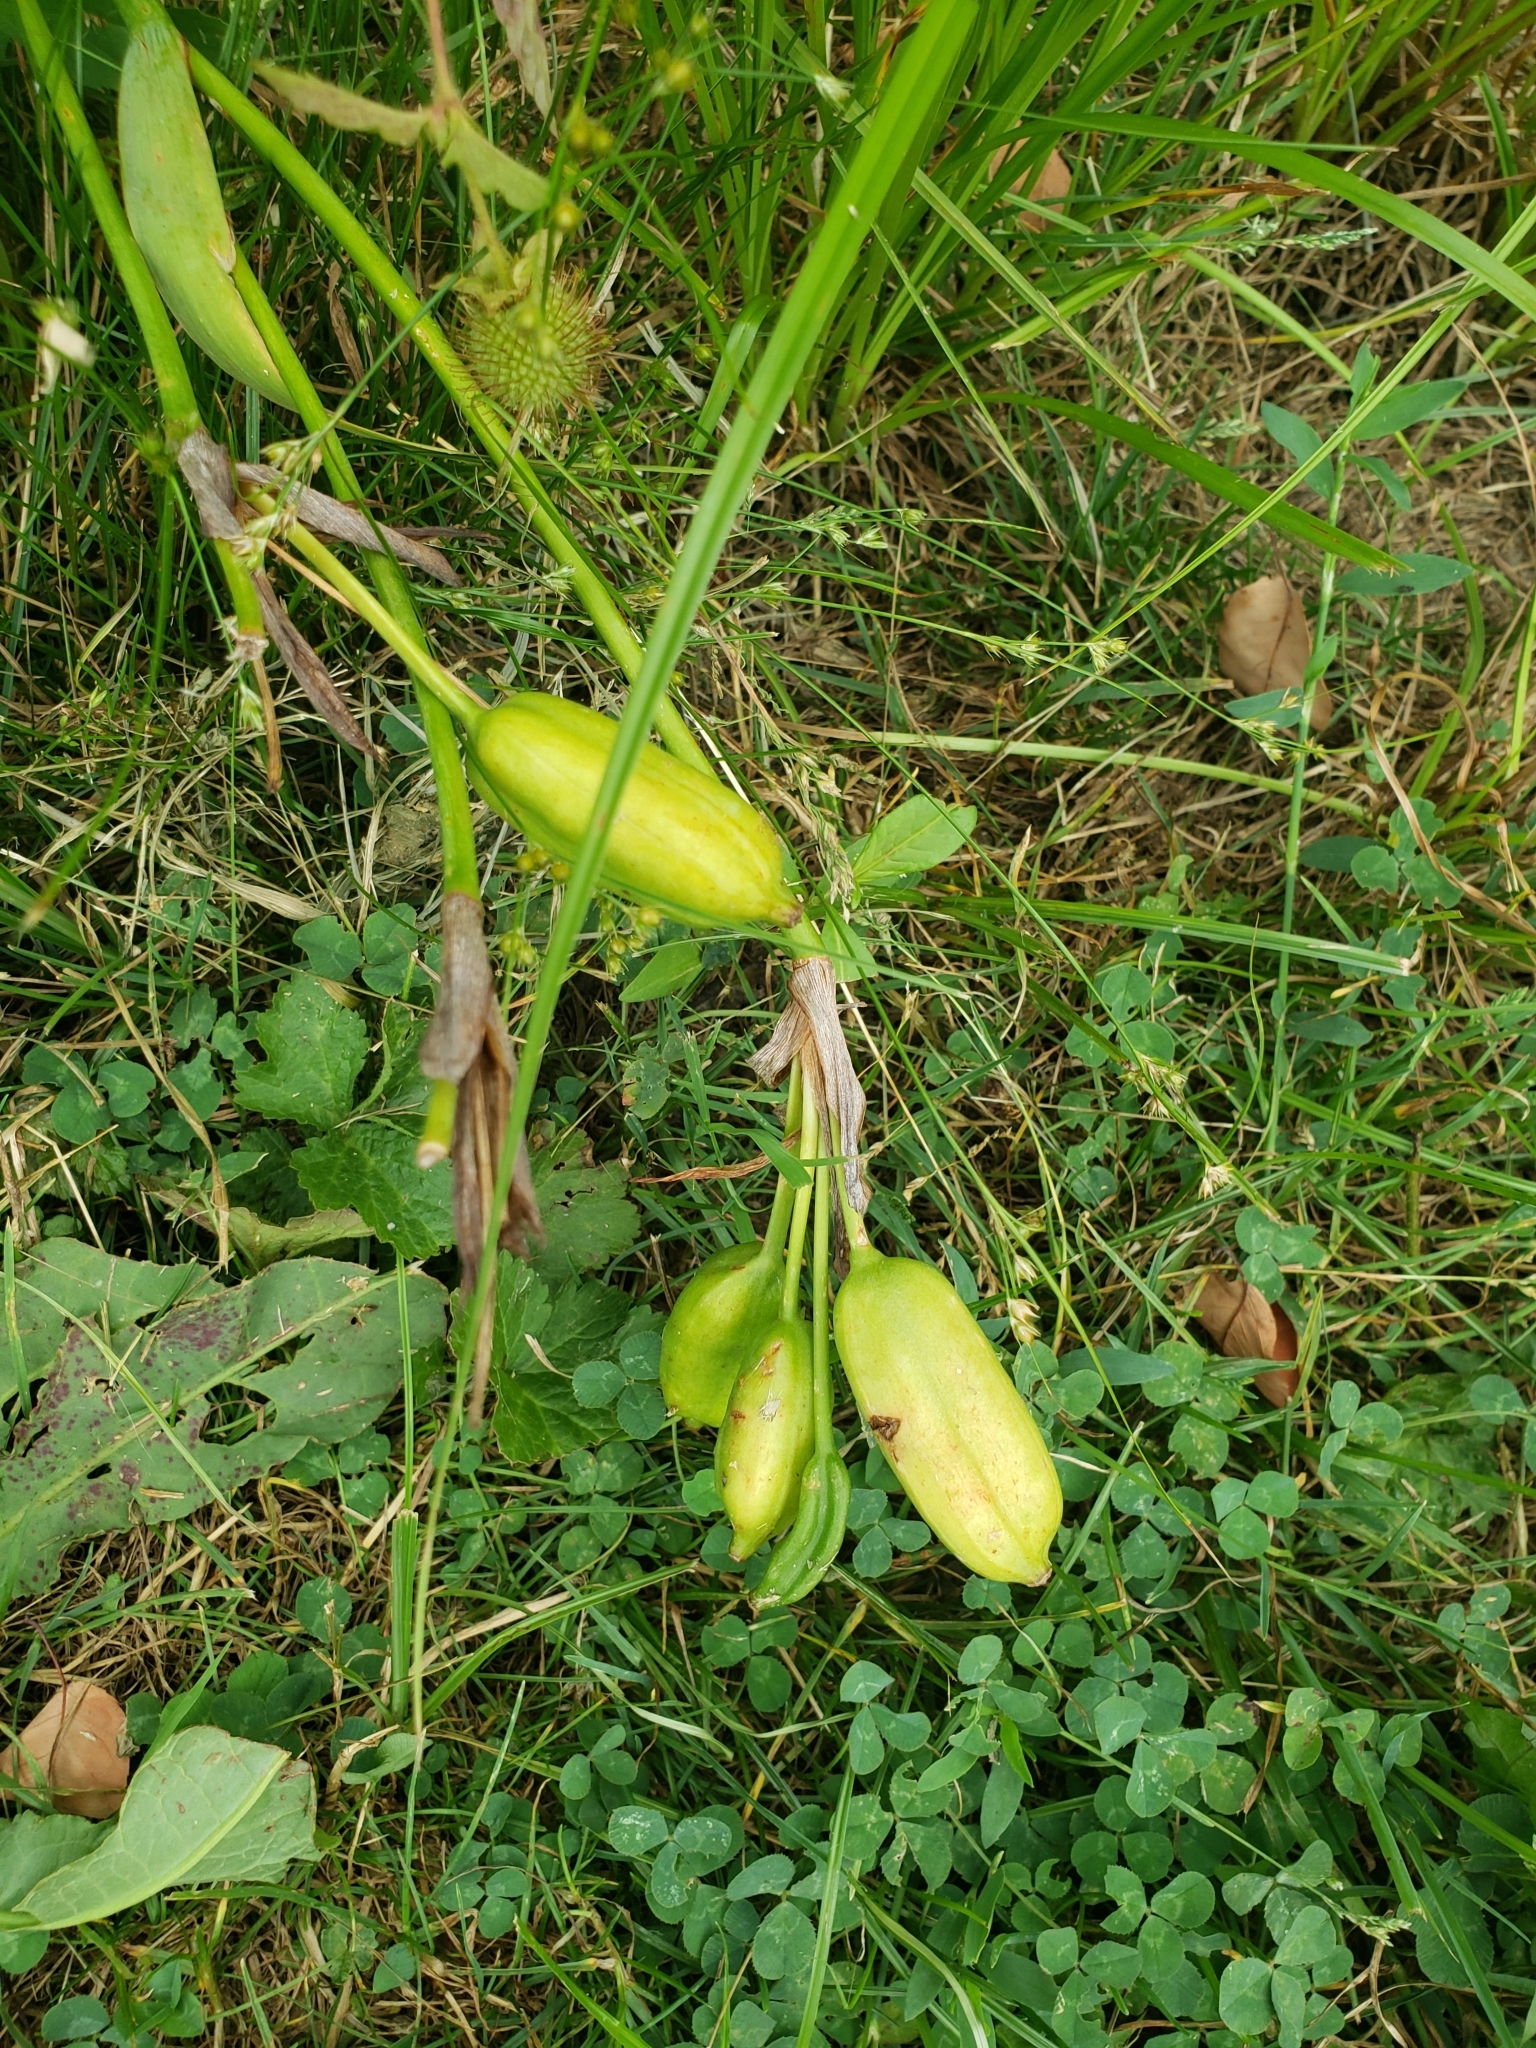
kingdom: Plantae
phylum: Tracheophyta
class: Liliopsida
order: Asparagales
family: Iridaceae
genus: Iris
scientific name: Iris versicolor
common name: Purple iris
